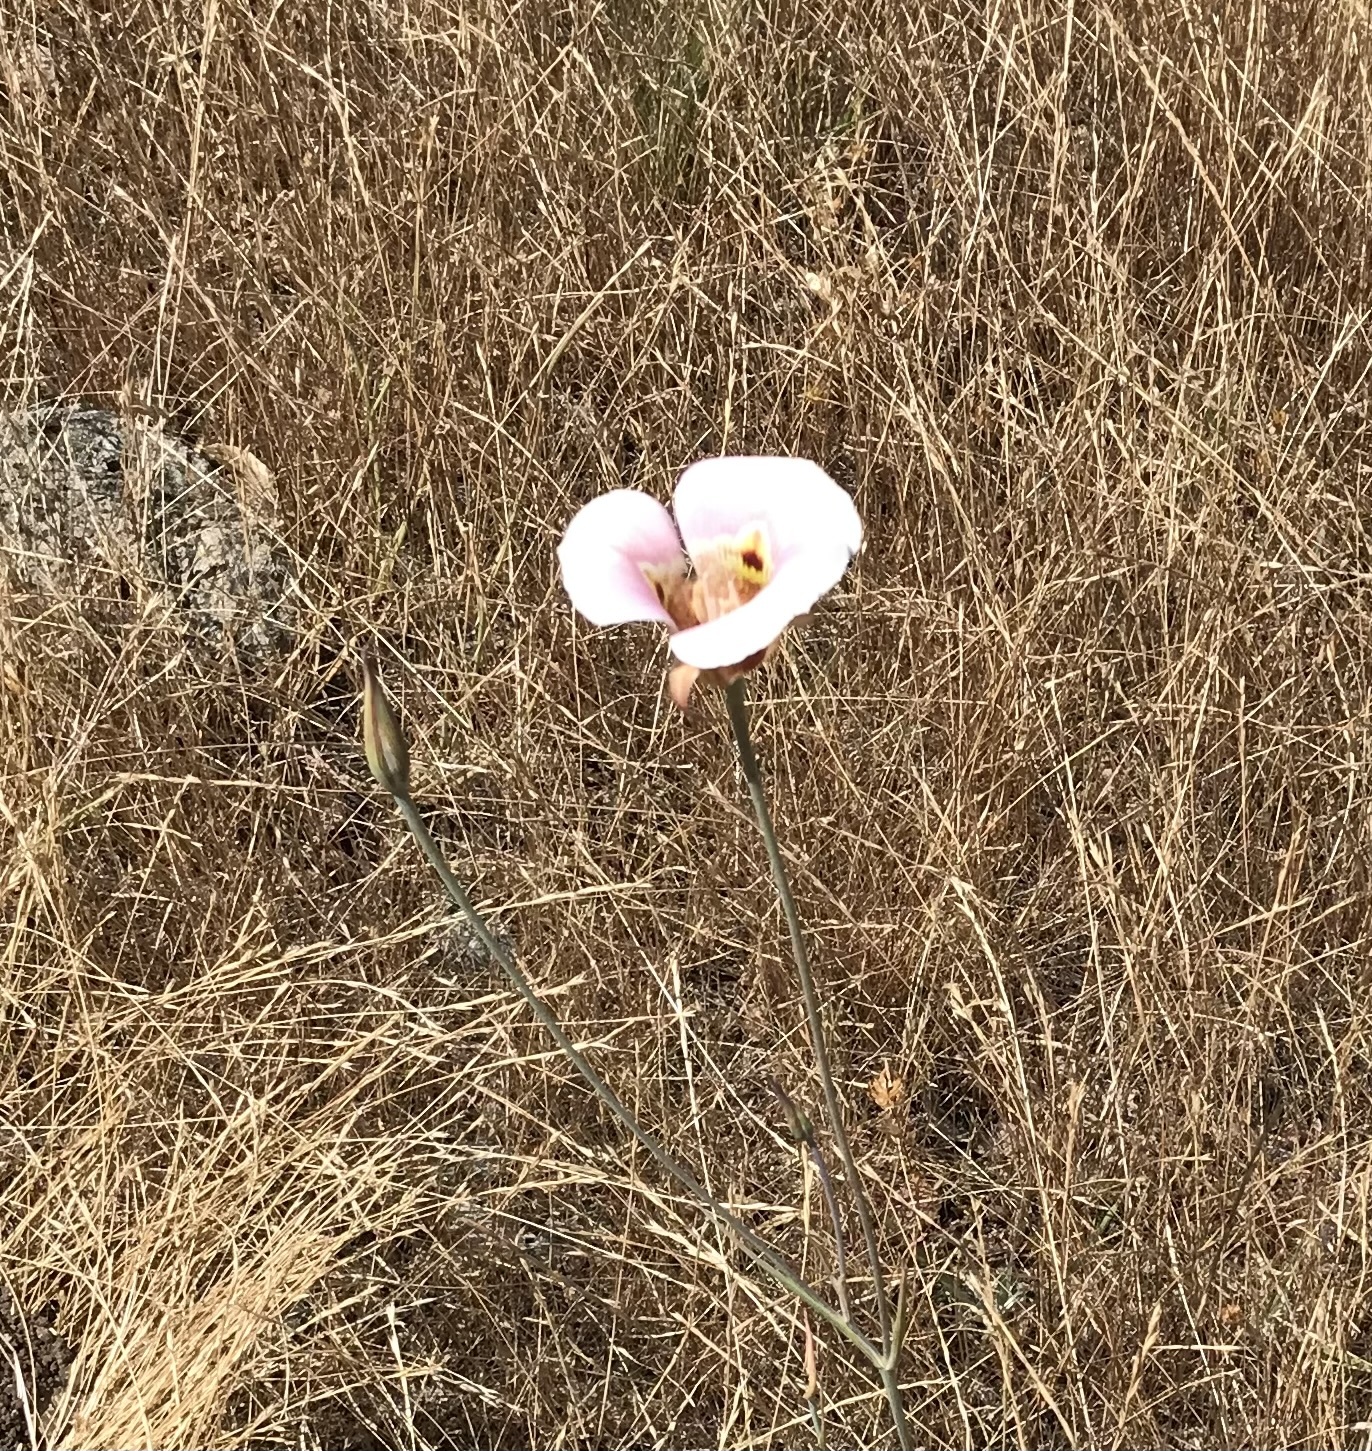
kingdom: Plantae
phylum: Tracheophyta
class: Liliopsida
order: Liliales
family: Liliaceae
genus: Calochortus
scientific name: Calochortus argillosus
